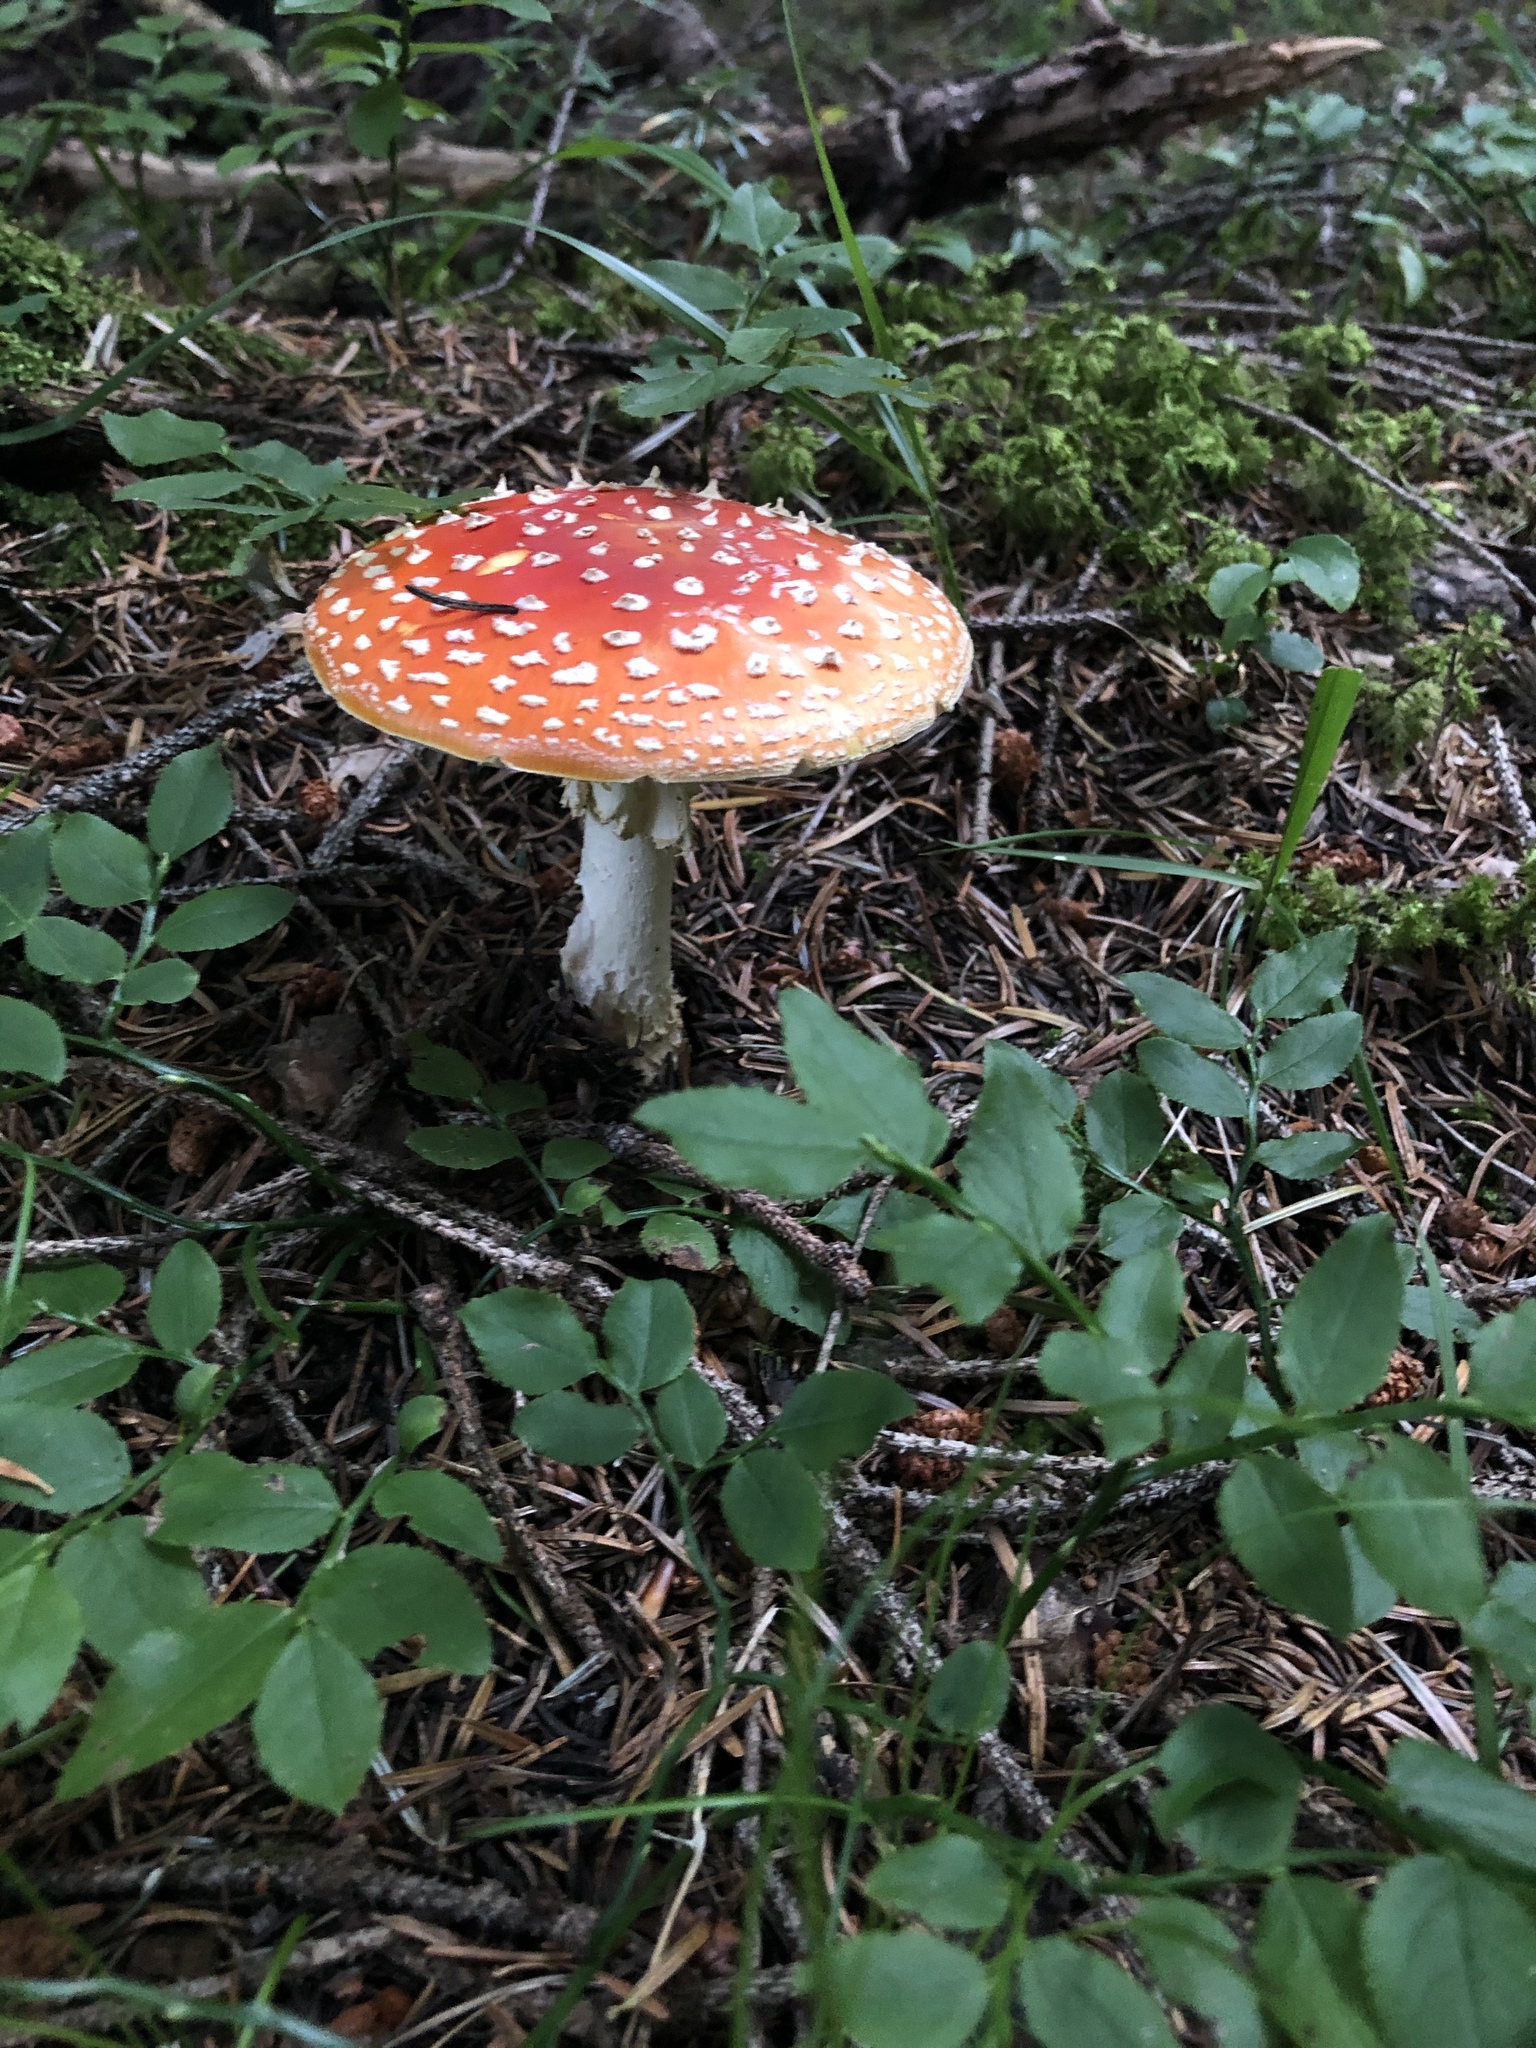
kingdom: Fungi
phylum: Basidiomycota
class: Agaricomycetes
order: Agaricales
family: Amanitaceae
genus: Amanita
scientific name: Amanita muscaria
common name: Fly agaric
